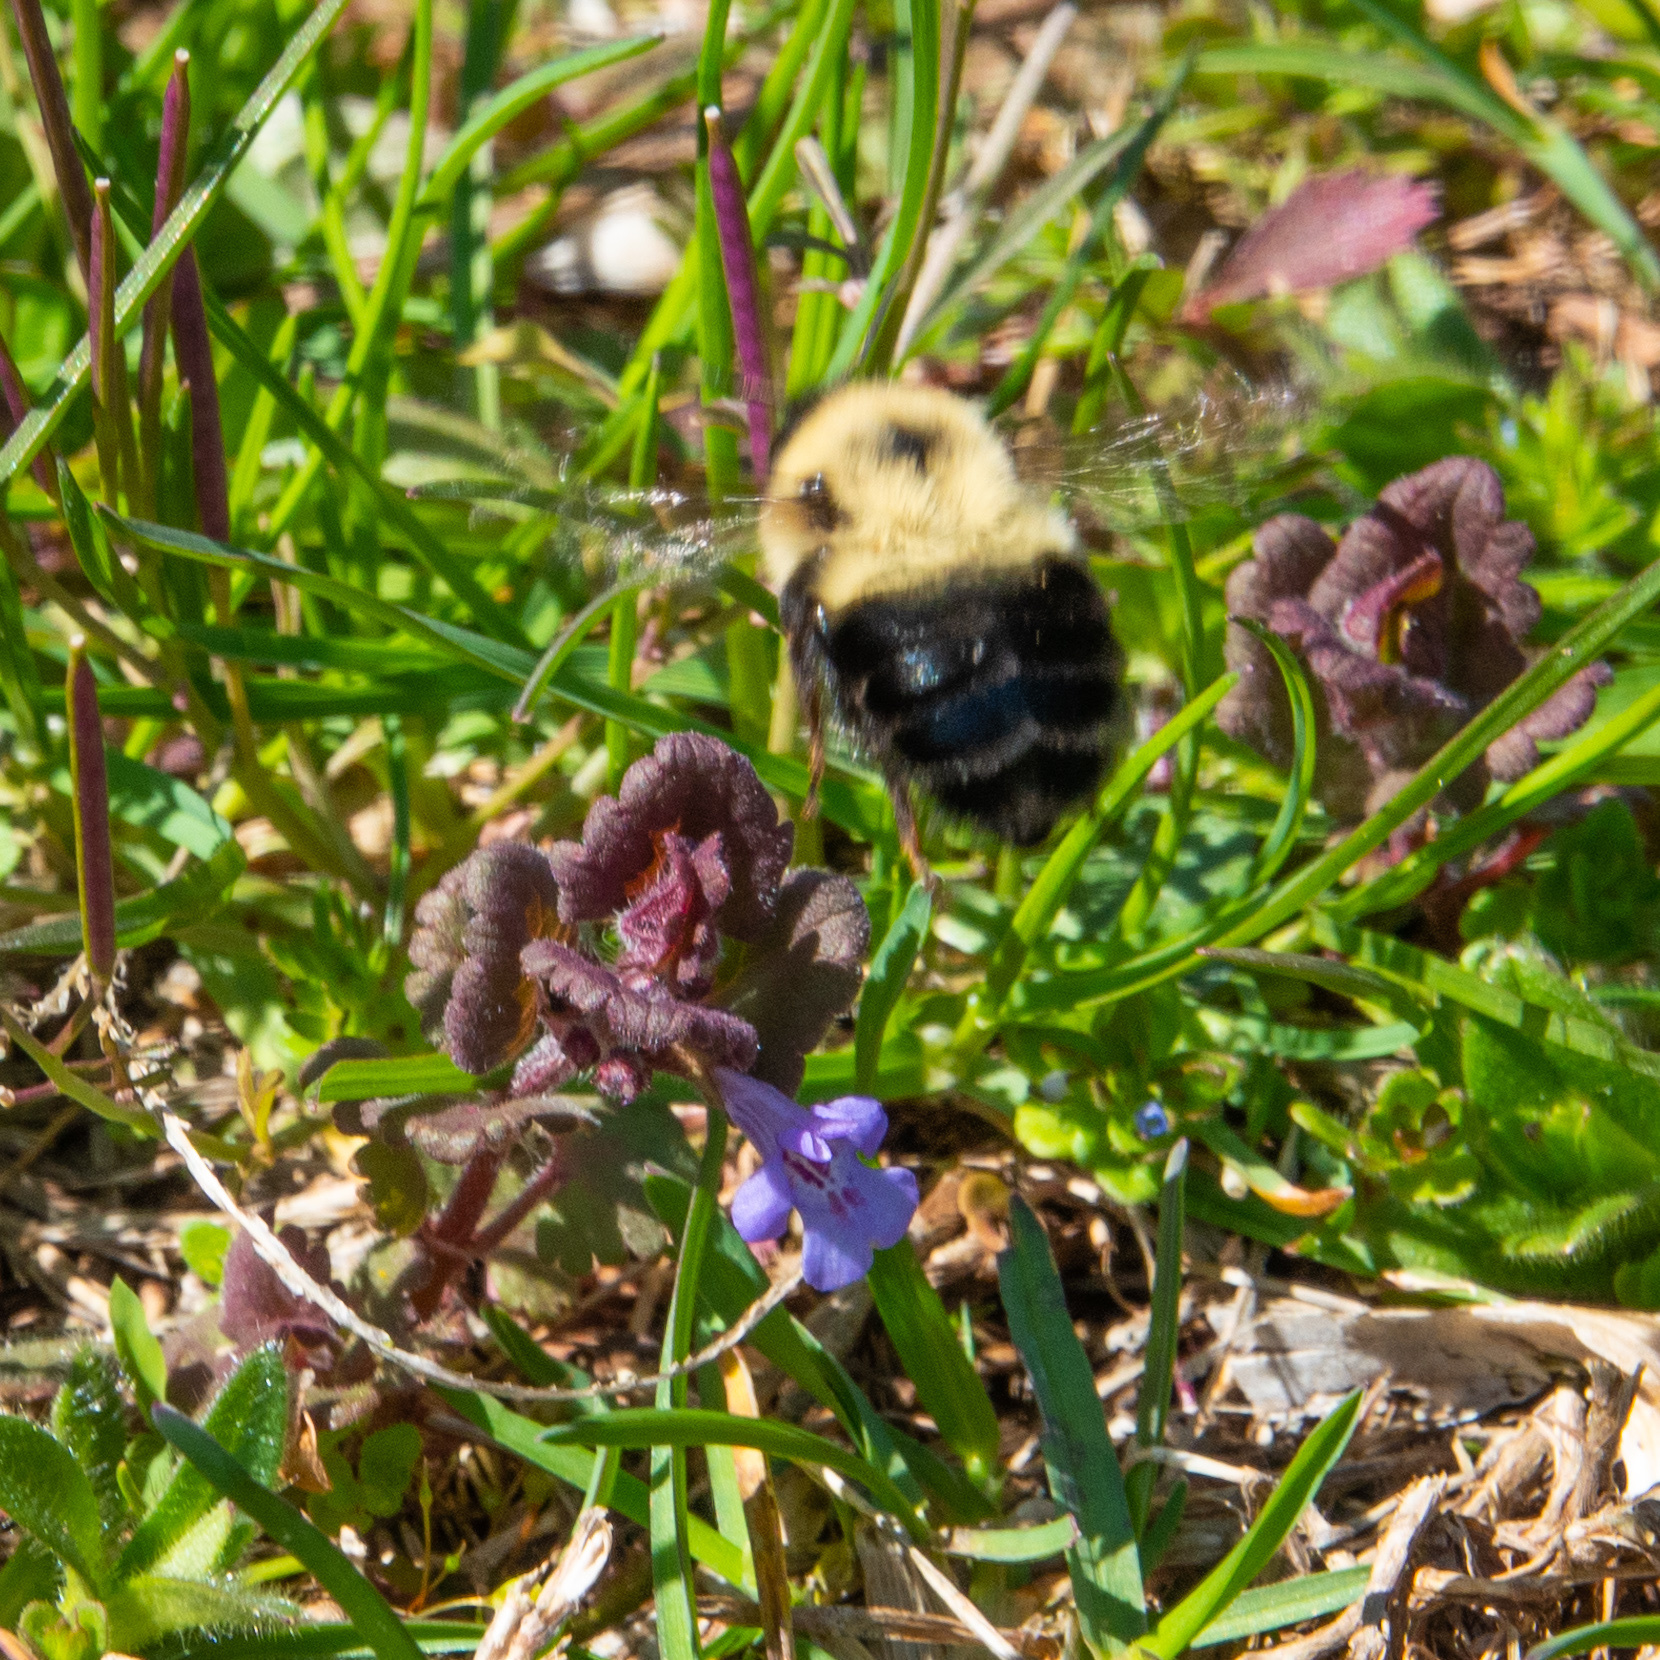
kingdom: Animalia
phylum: Arthropoda
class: Insecta
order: Hymenoptera
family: Apidae
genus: Bombus
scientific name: Bombus bimaculatus
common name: Two-spotted bumble bee
